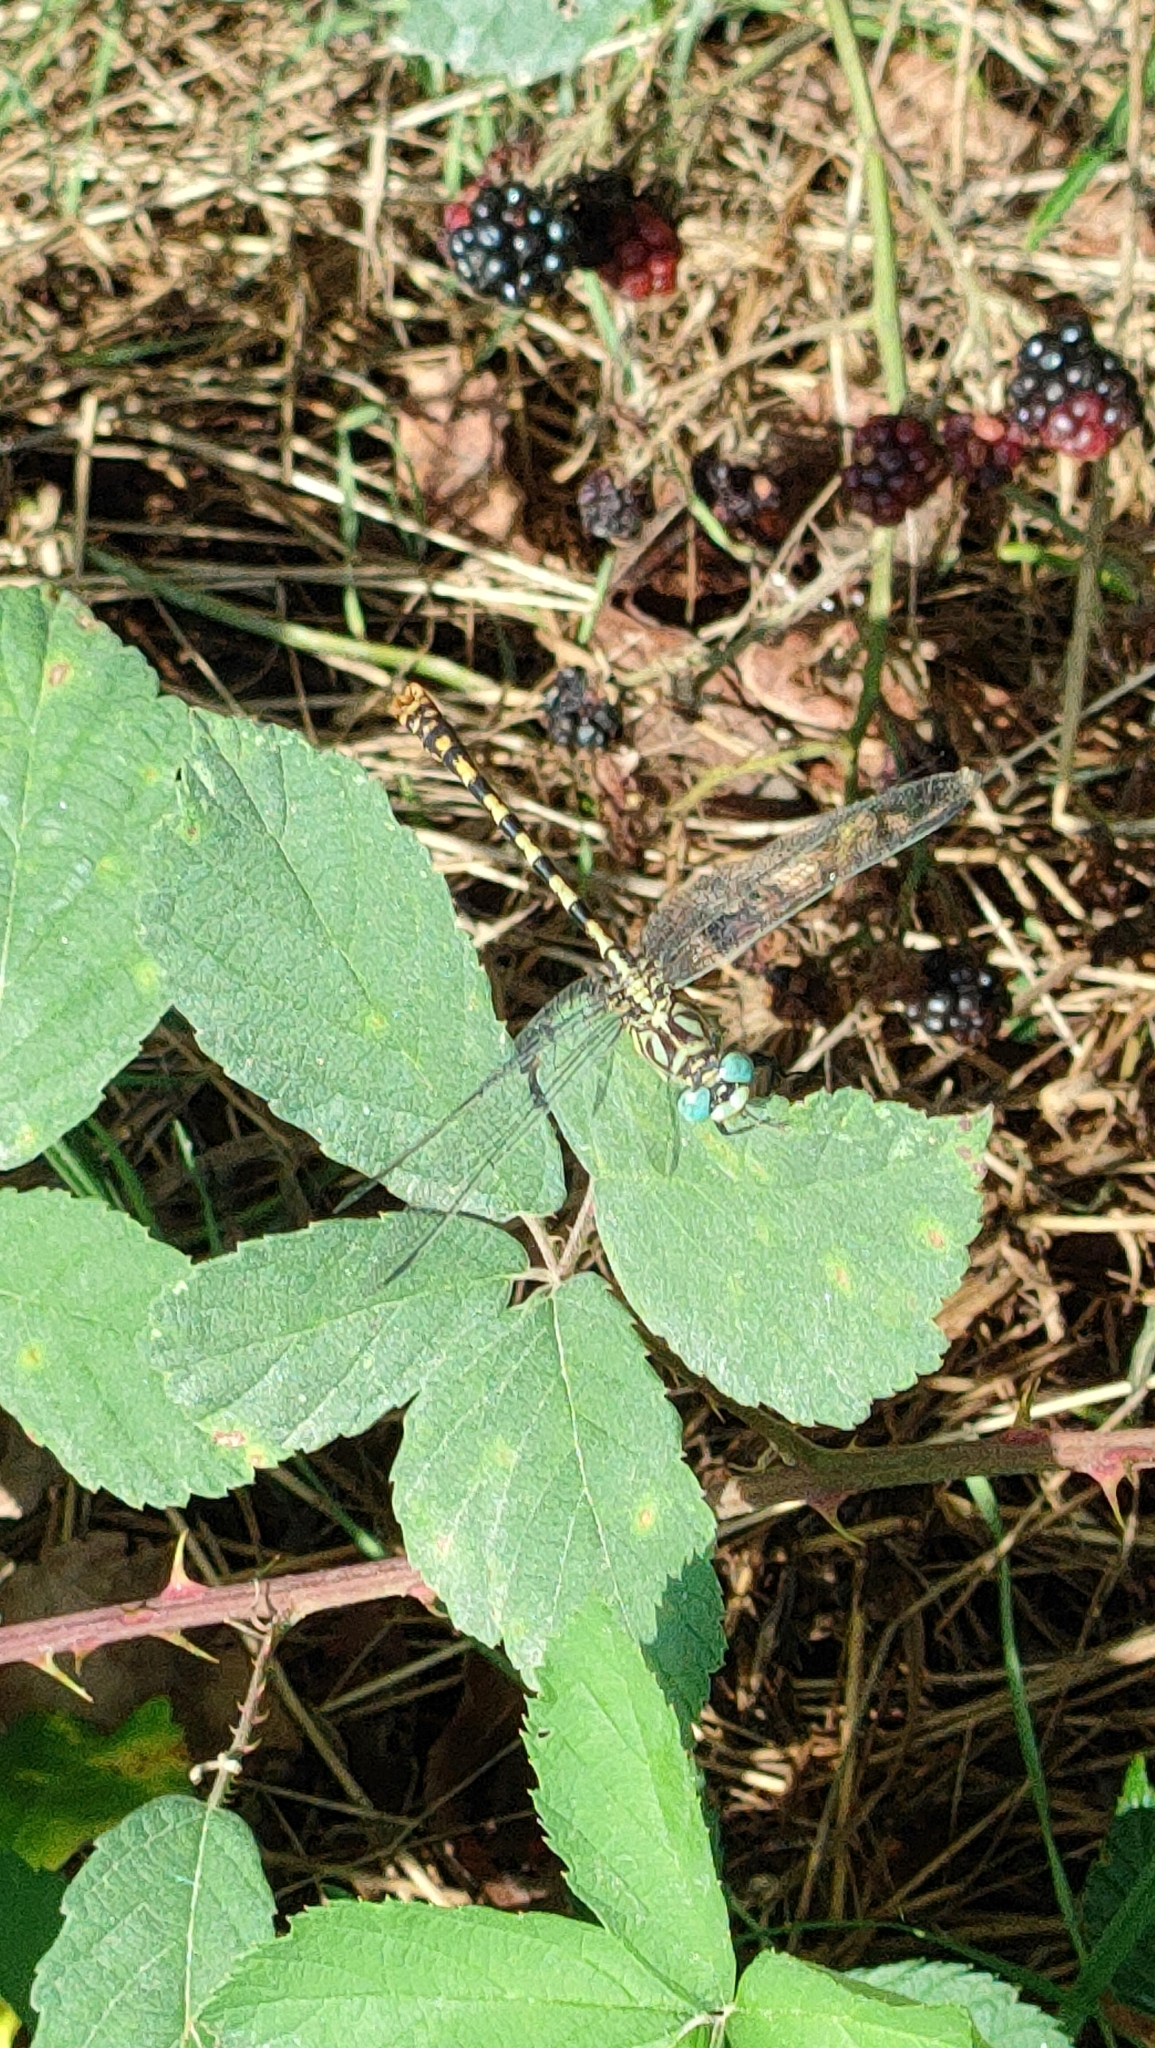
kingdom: Animalia
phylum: Arthropoda
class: Insecta
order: Odonata
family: Gomphidae
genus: Onychogomphus
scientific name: Onychogomphus forcipatus
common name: Small pincertail
